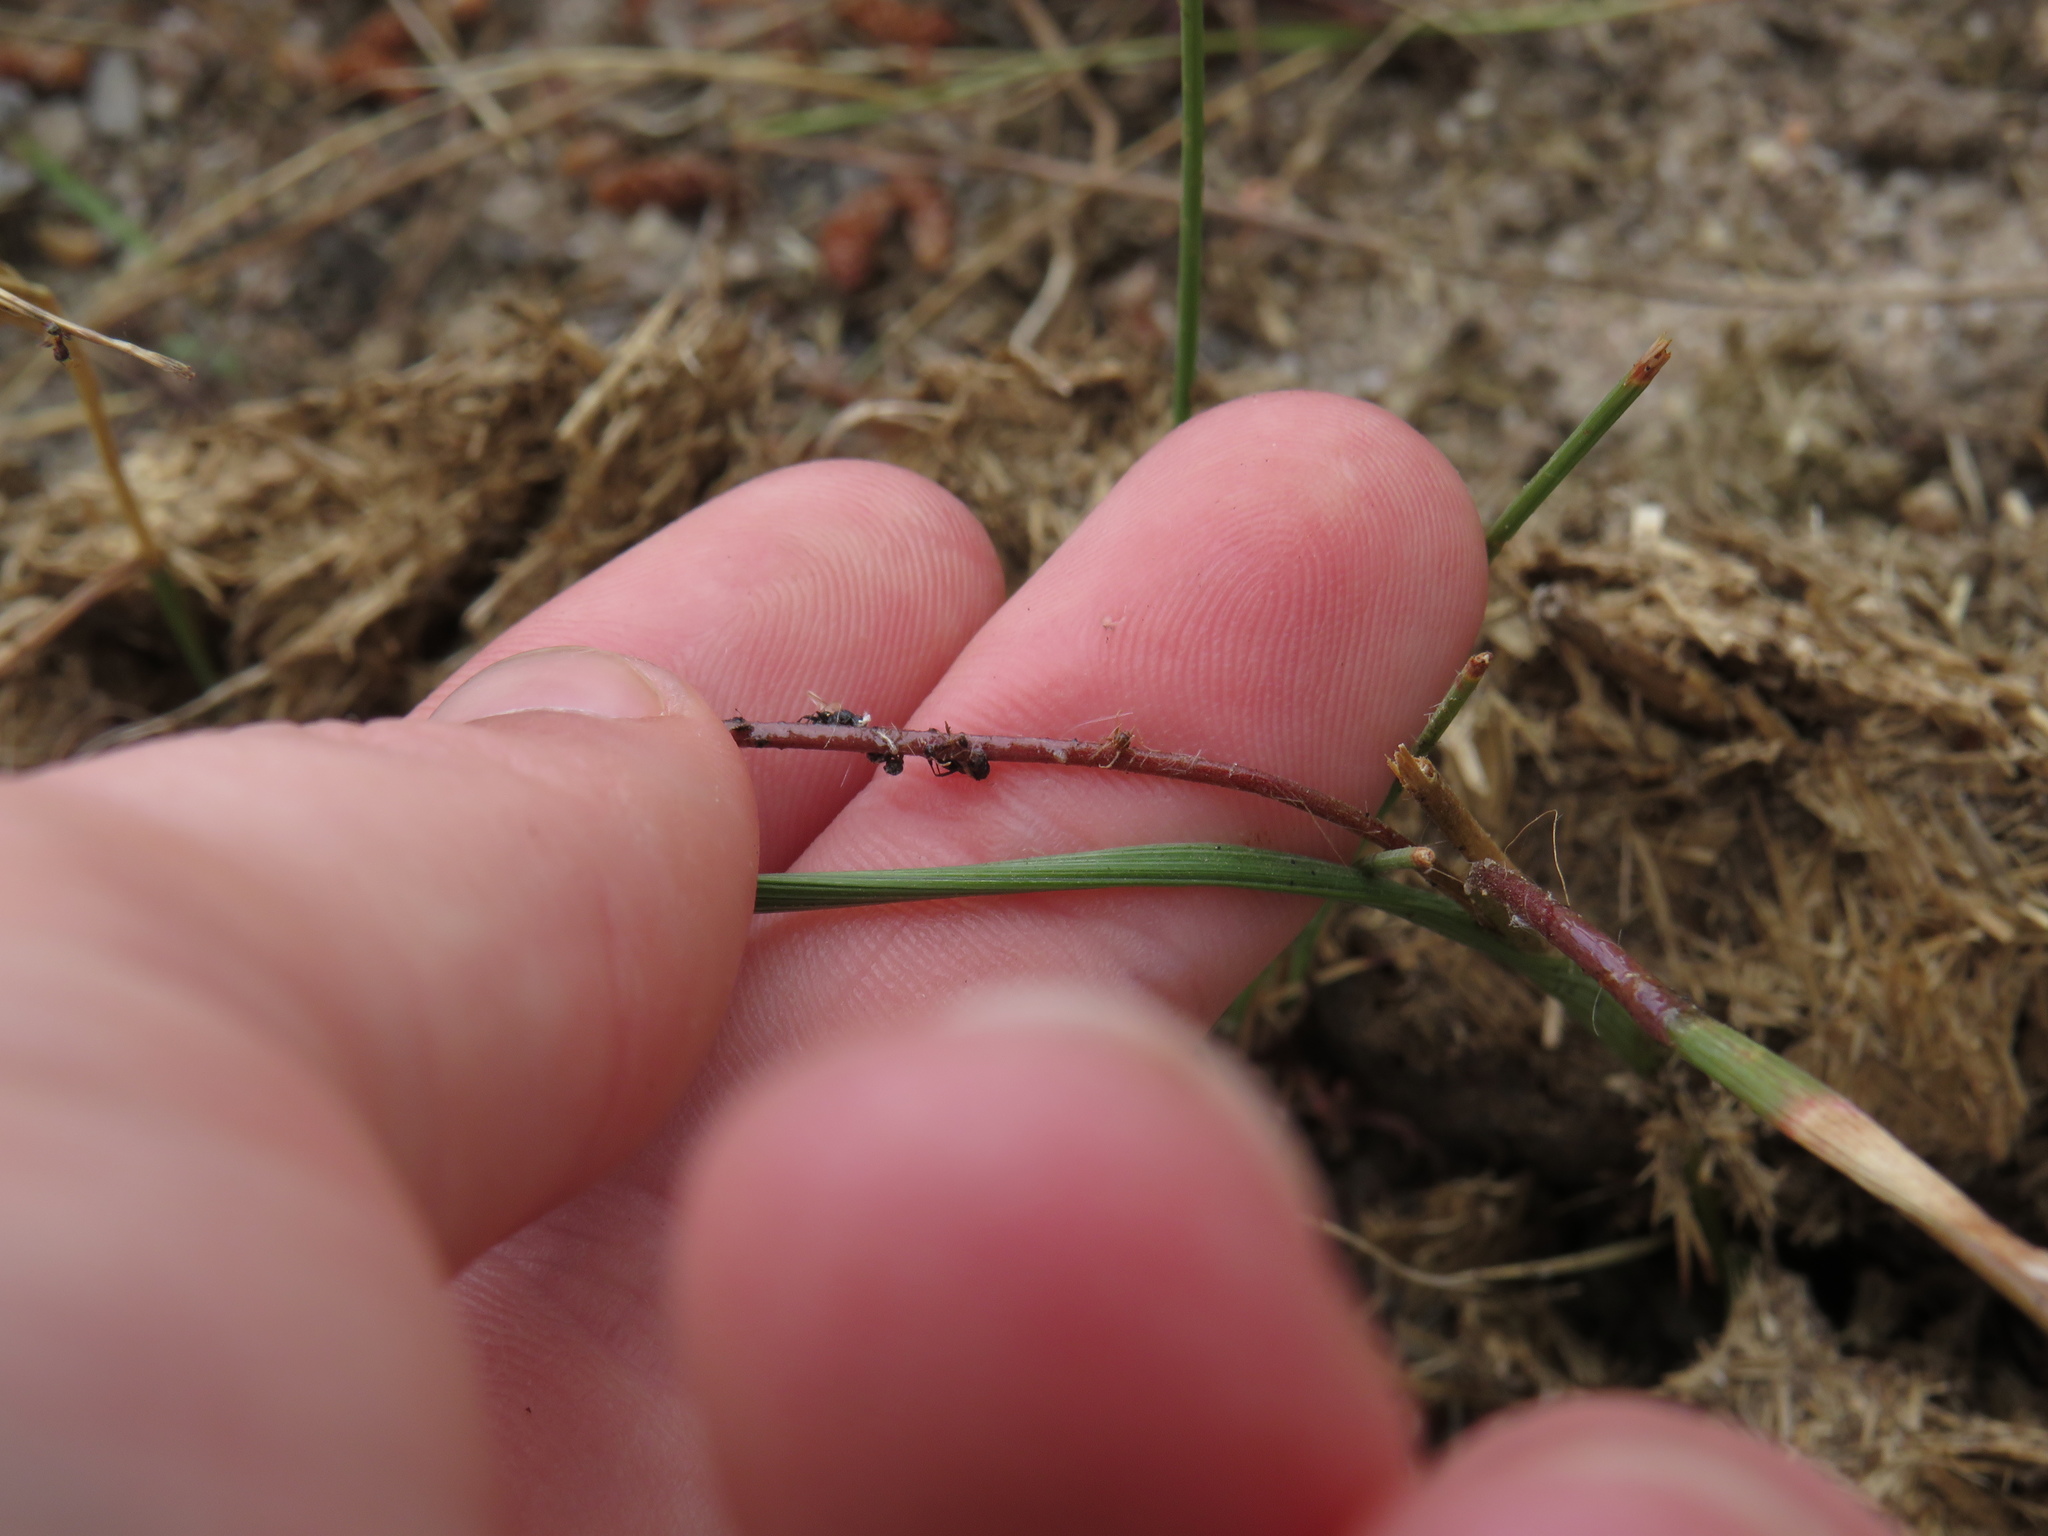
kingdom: Plantae
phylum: Tracheophyta
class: Liliopsida
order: Asparagales
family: Iridaceae
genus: Moraea
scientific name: Moraea inconspicua
